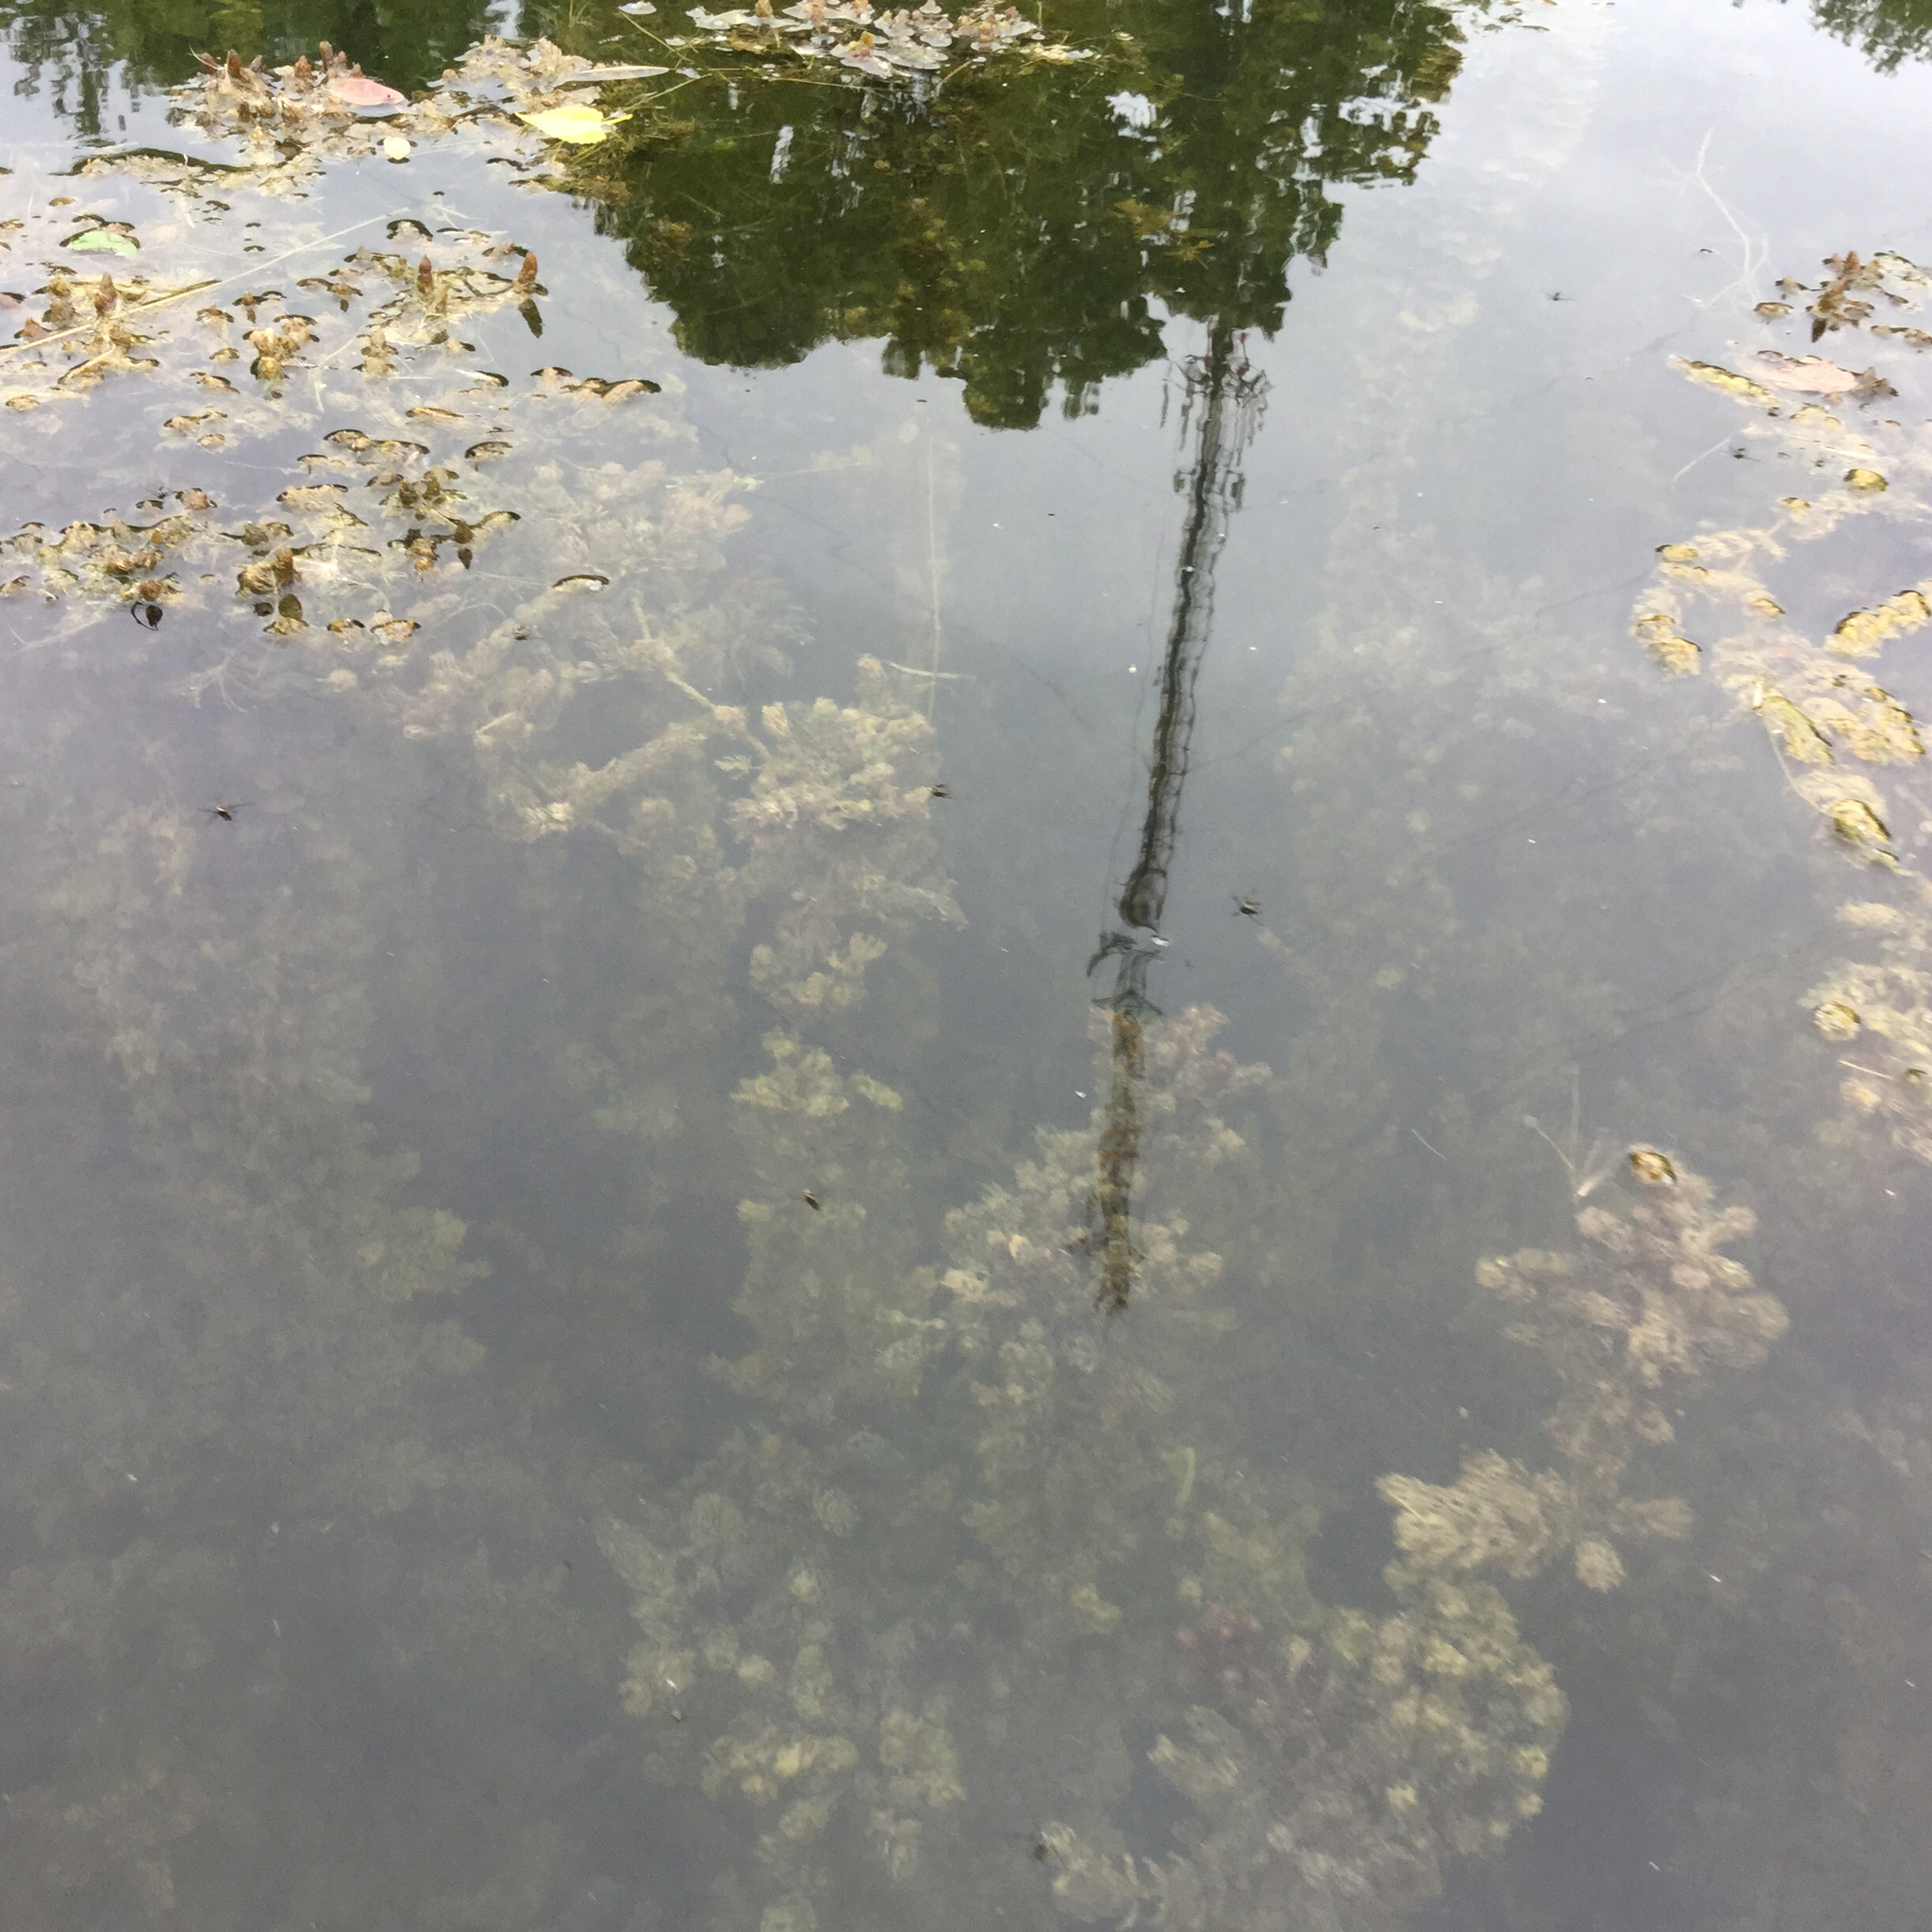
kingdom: Plantae
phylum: Tracheophyta
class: Magnoliopsida
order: Ceratophyllales
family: Ceratophyllaceae
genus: Ceratophyllum
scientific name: Ceratophyllum demersum
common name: Rigid hornwort
